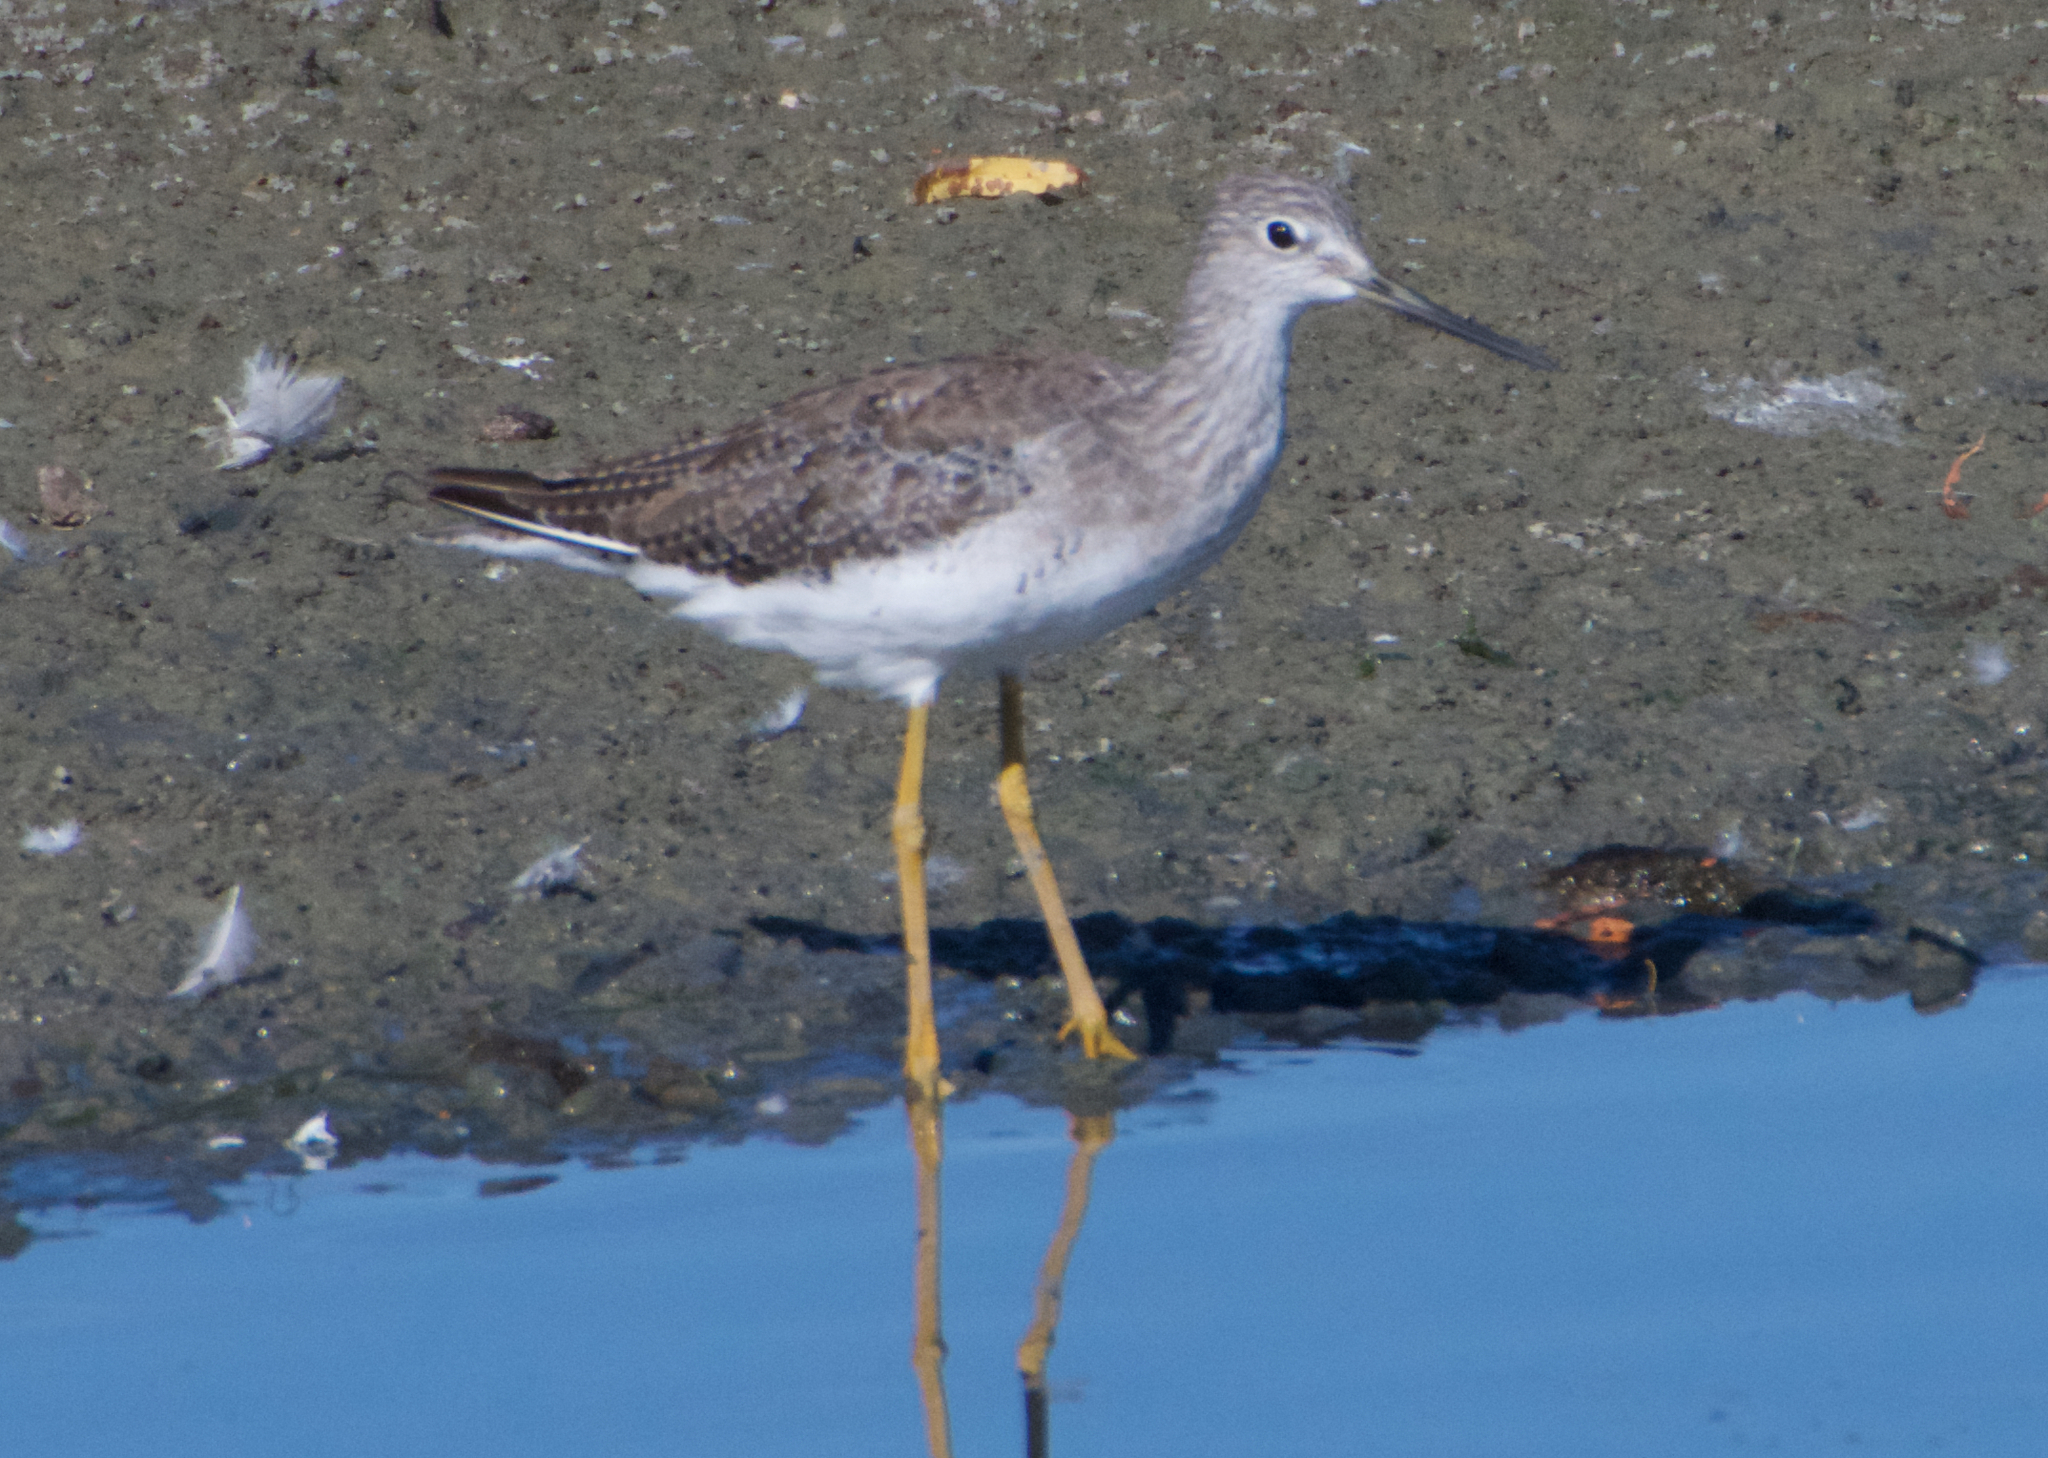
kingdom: Animalia
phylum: Chordata
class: Aves
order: Charadriiformes
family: Scolopacidae
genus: Tringa
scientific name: Tringa melanoleuca
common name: Greater yellowlegs
